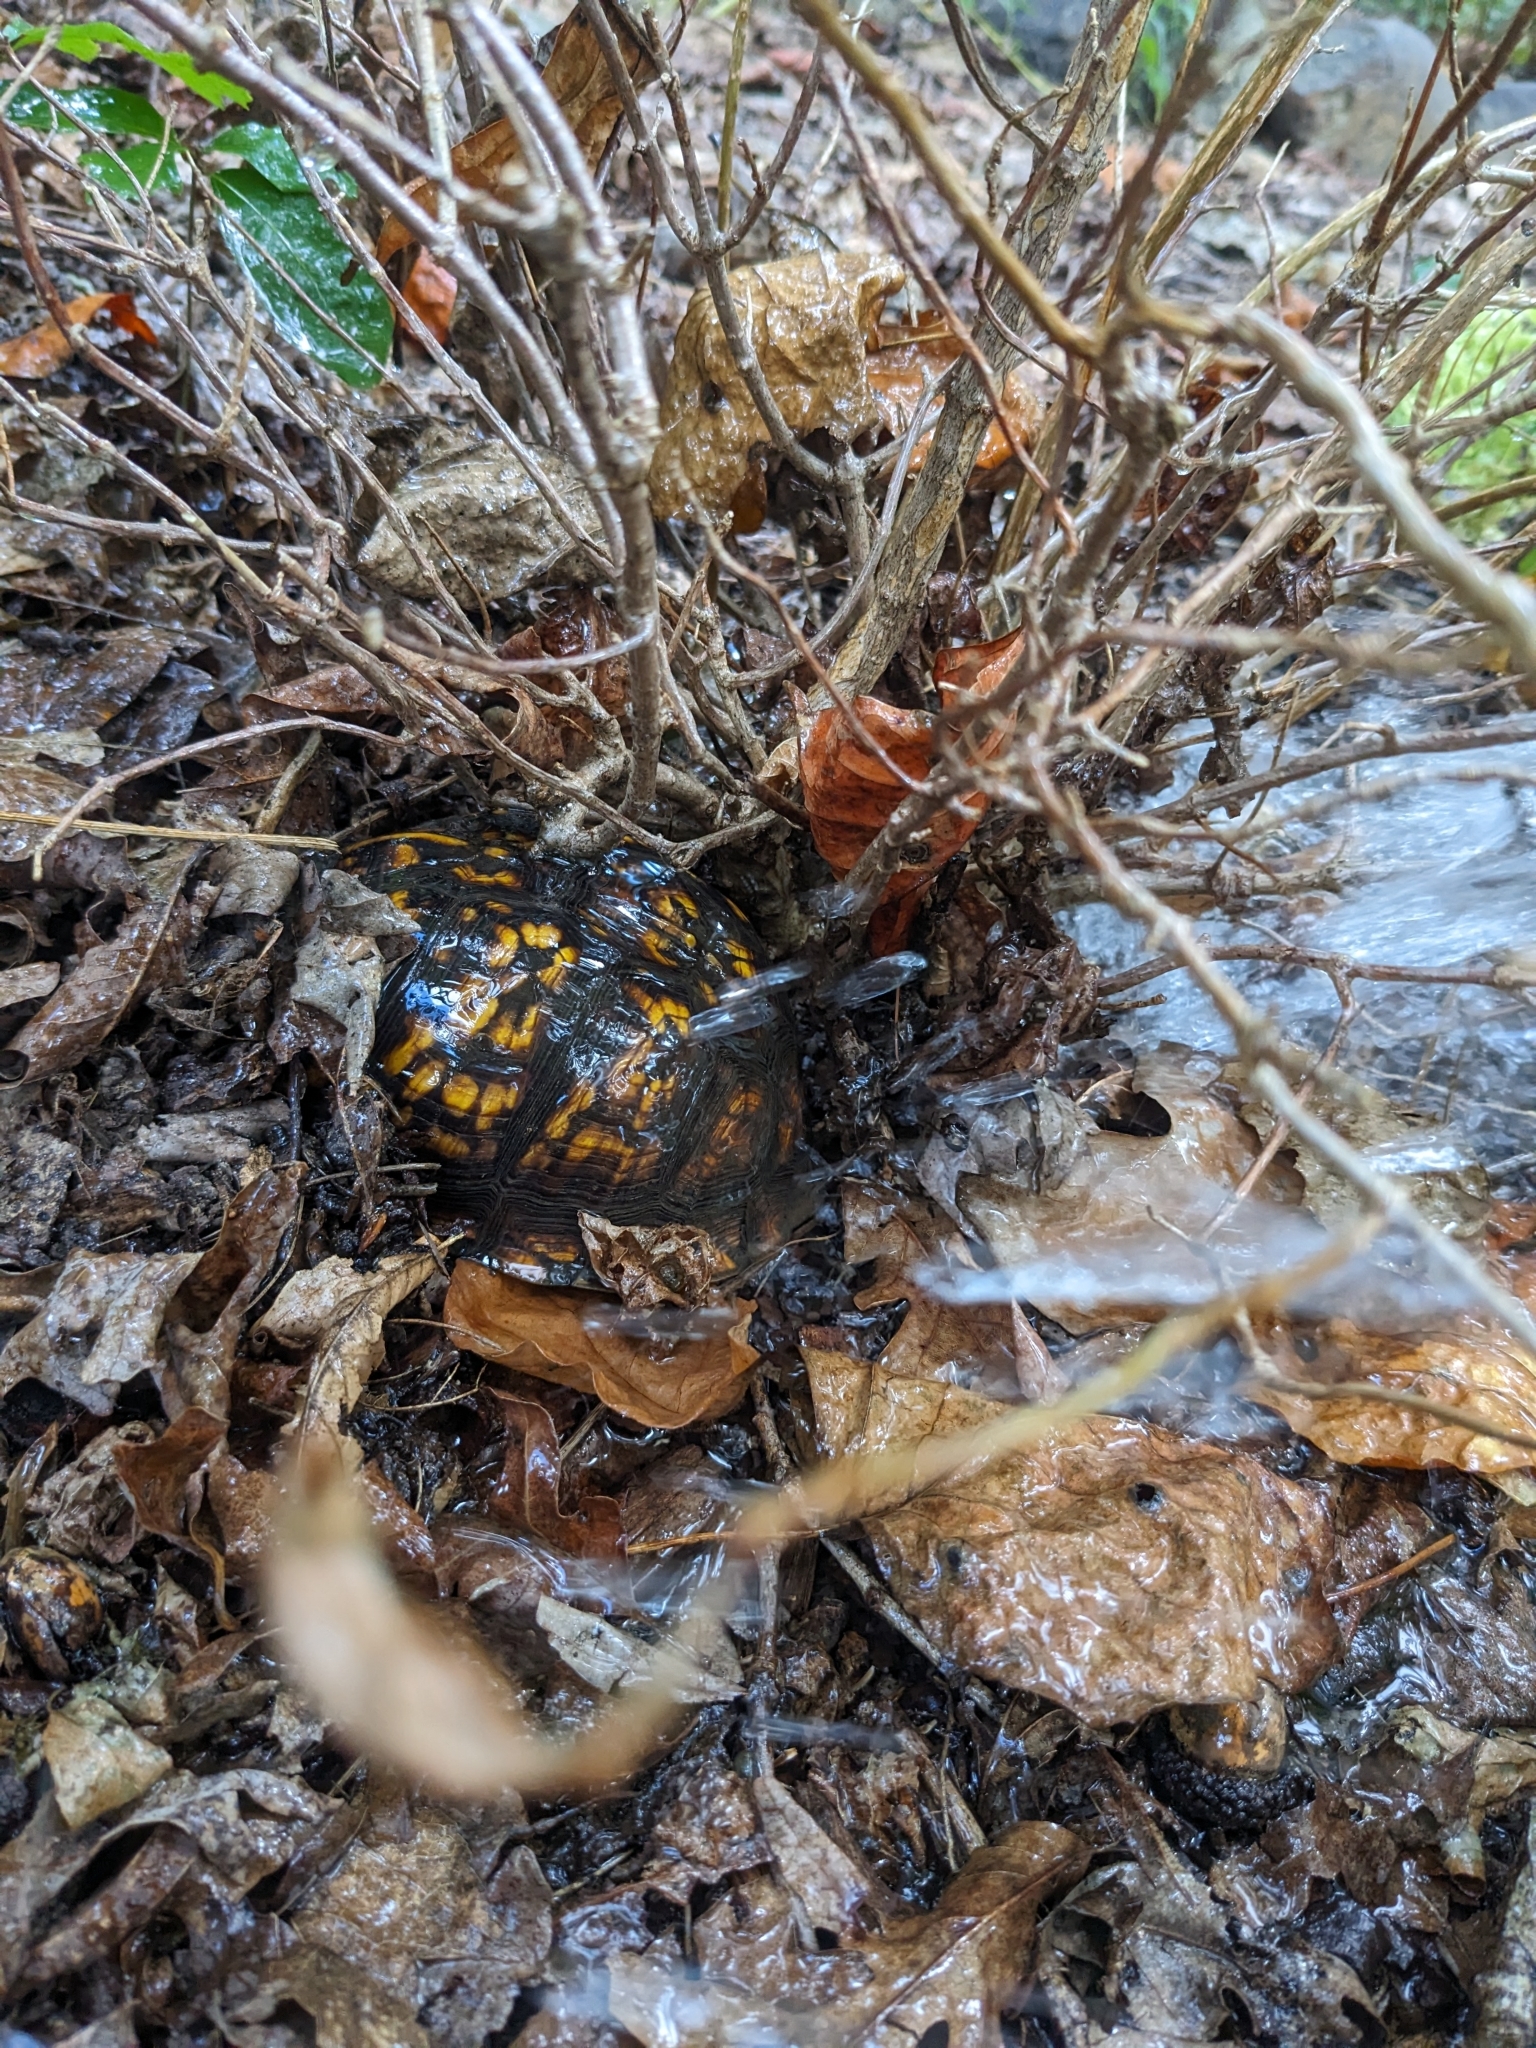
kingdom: Animalia
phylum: Chordata
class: Testudines
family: Emydidae
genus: Terrapene
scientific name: Terrapene carolina
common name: Common box turtle
